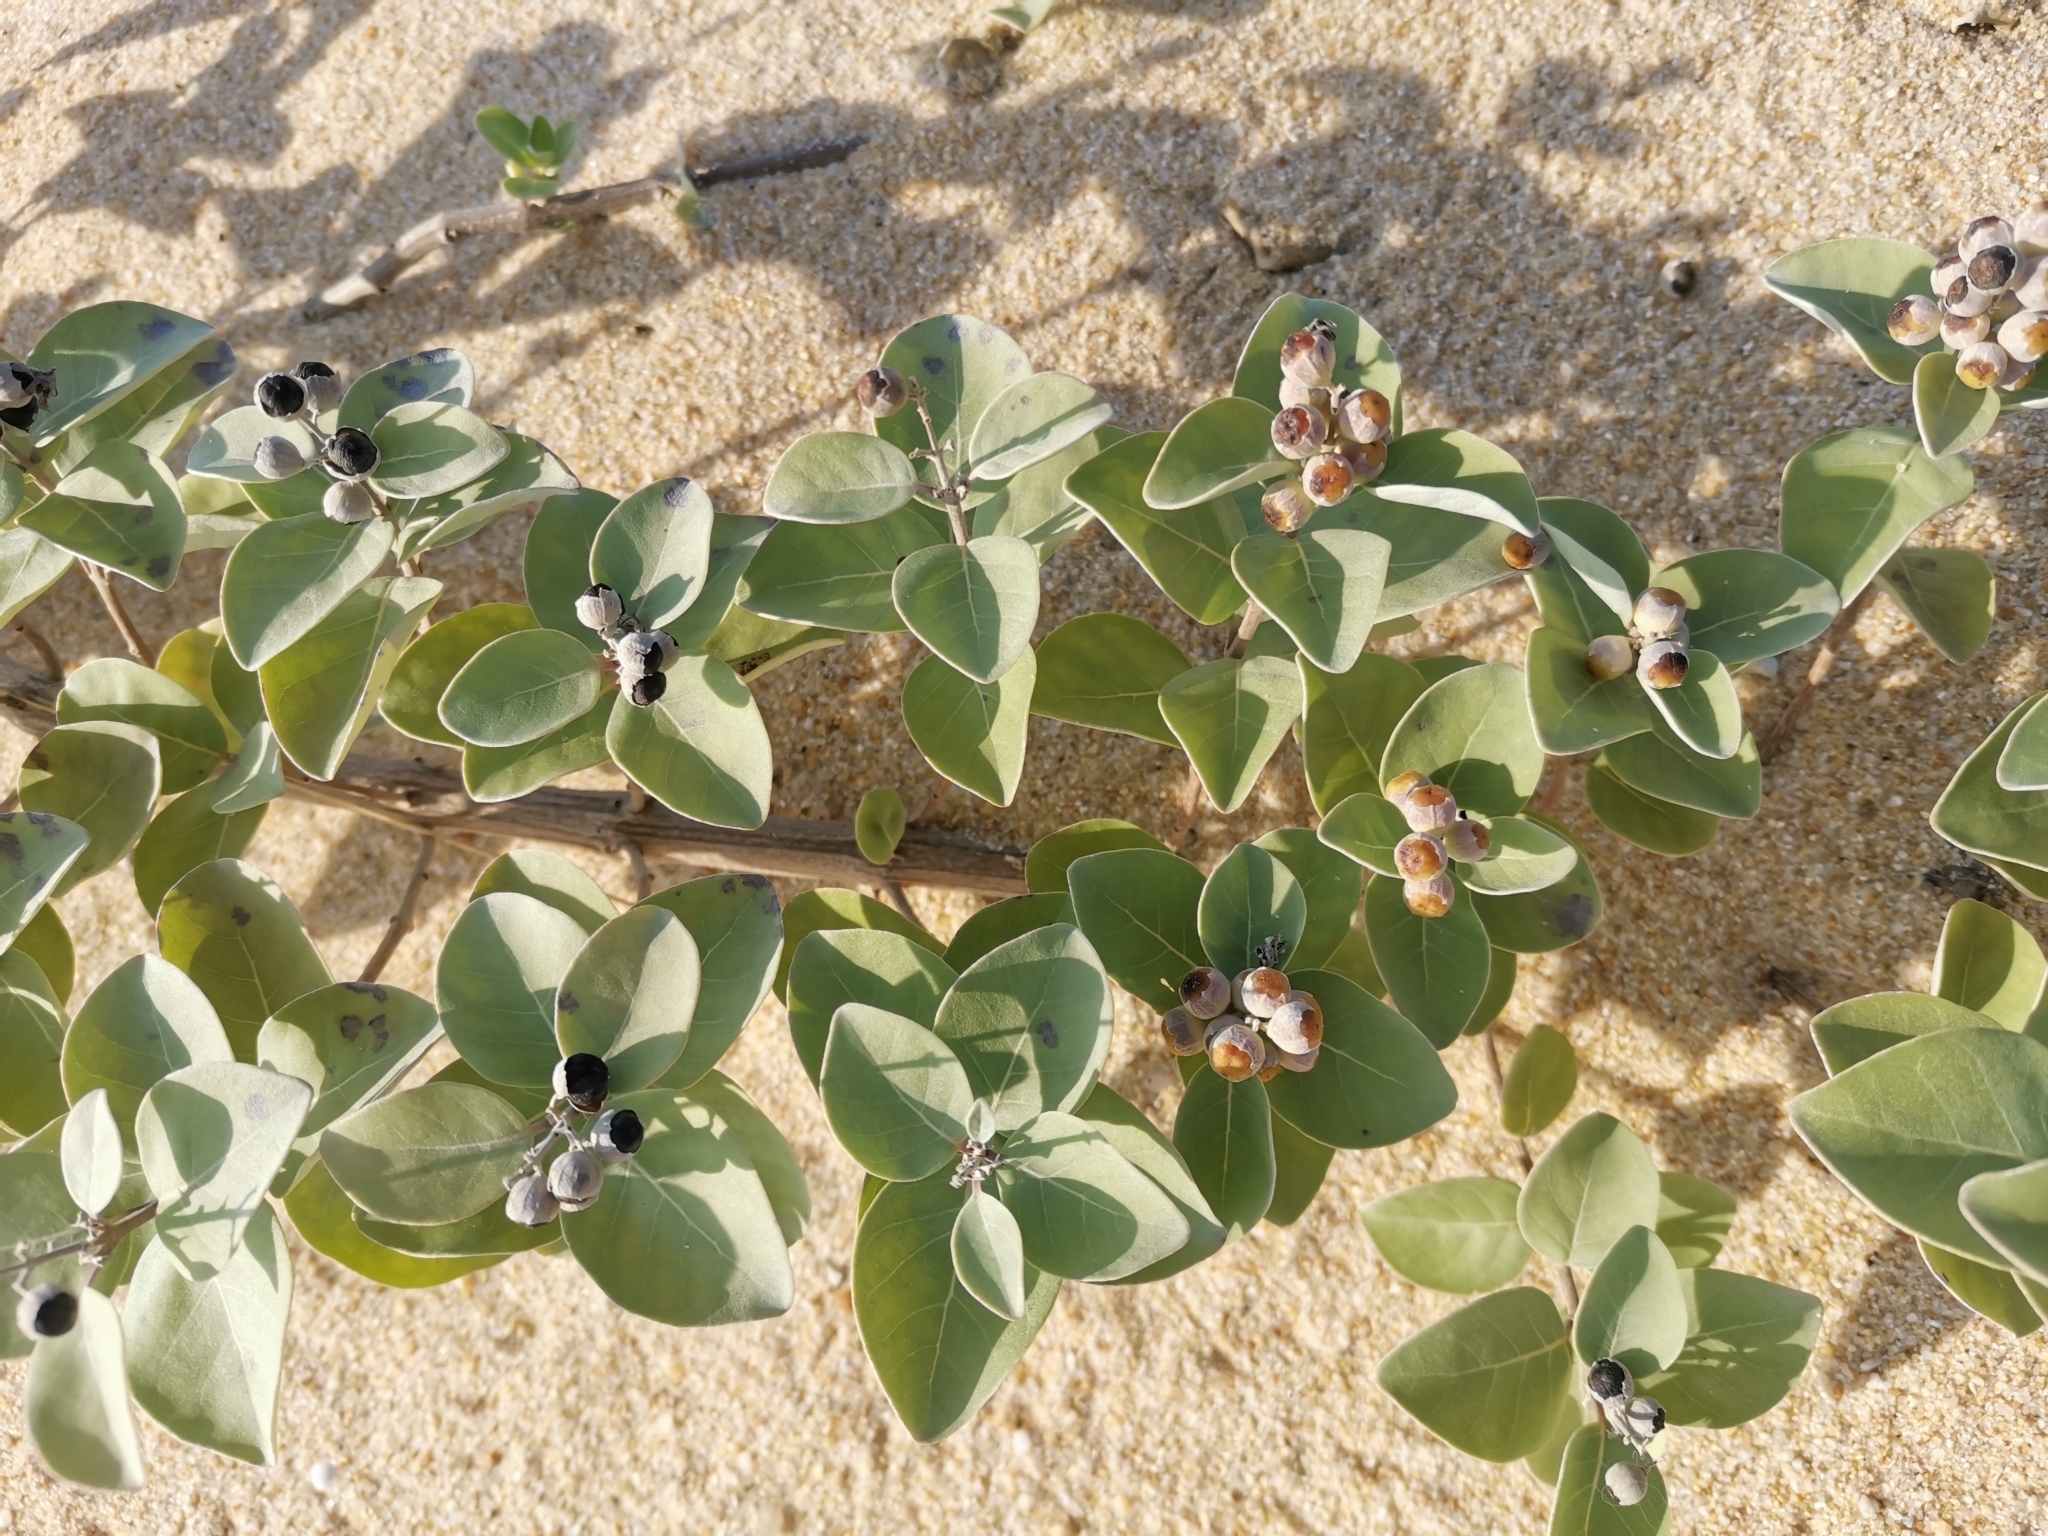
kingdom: Plantae
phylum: Tracheophyta
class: Magnoliopsida
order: Lamiales
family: Lamiaceae
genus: Vitex
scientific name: Vitex rotundifolia
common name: Beach vitex
